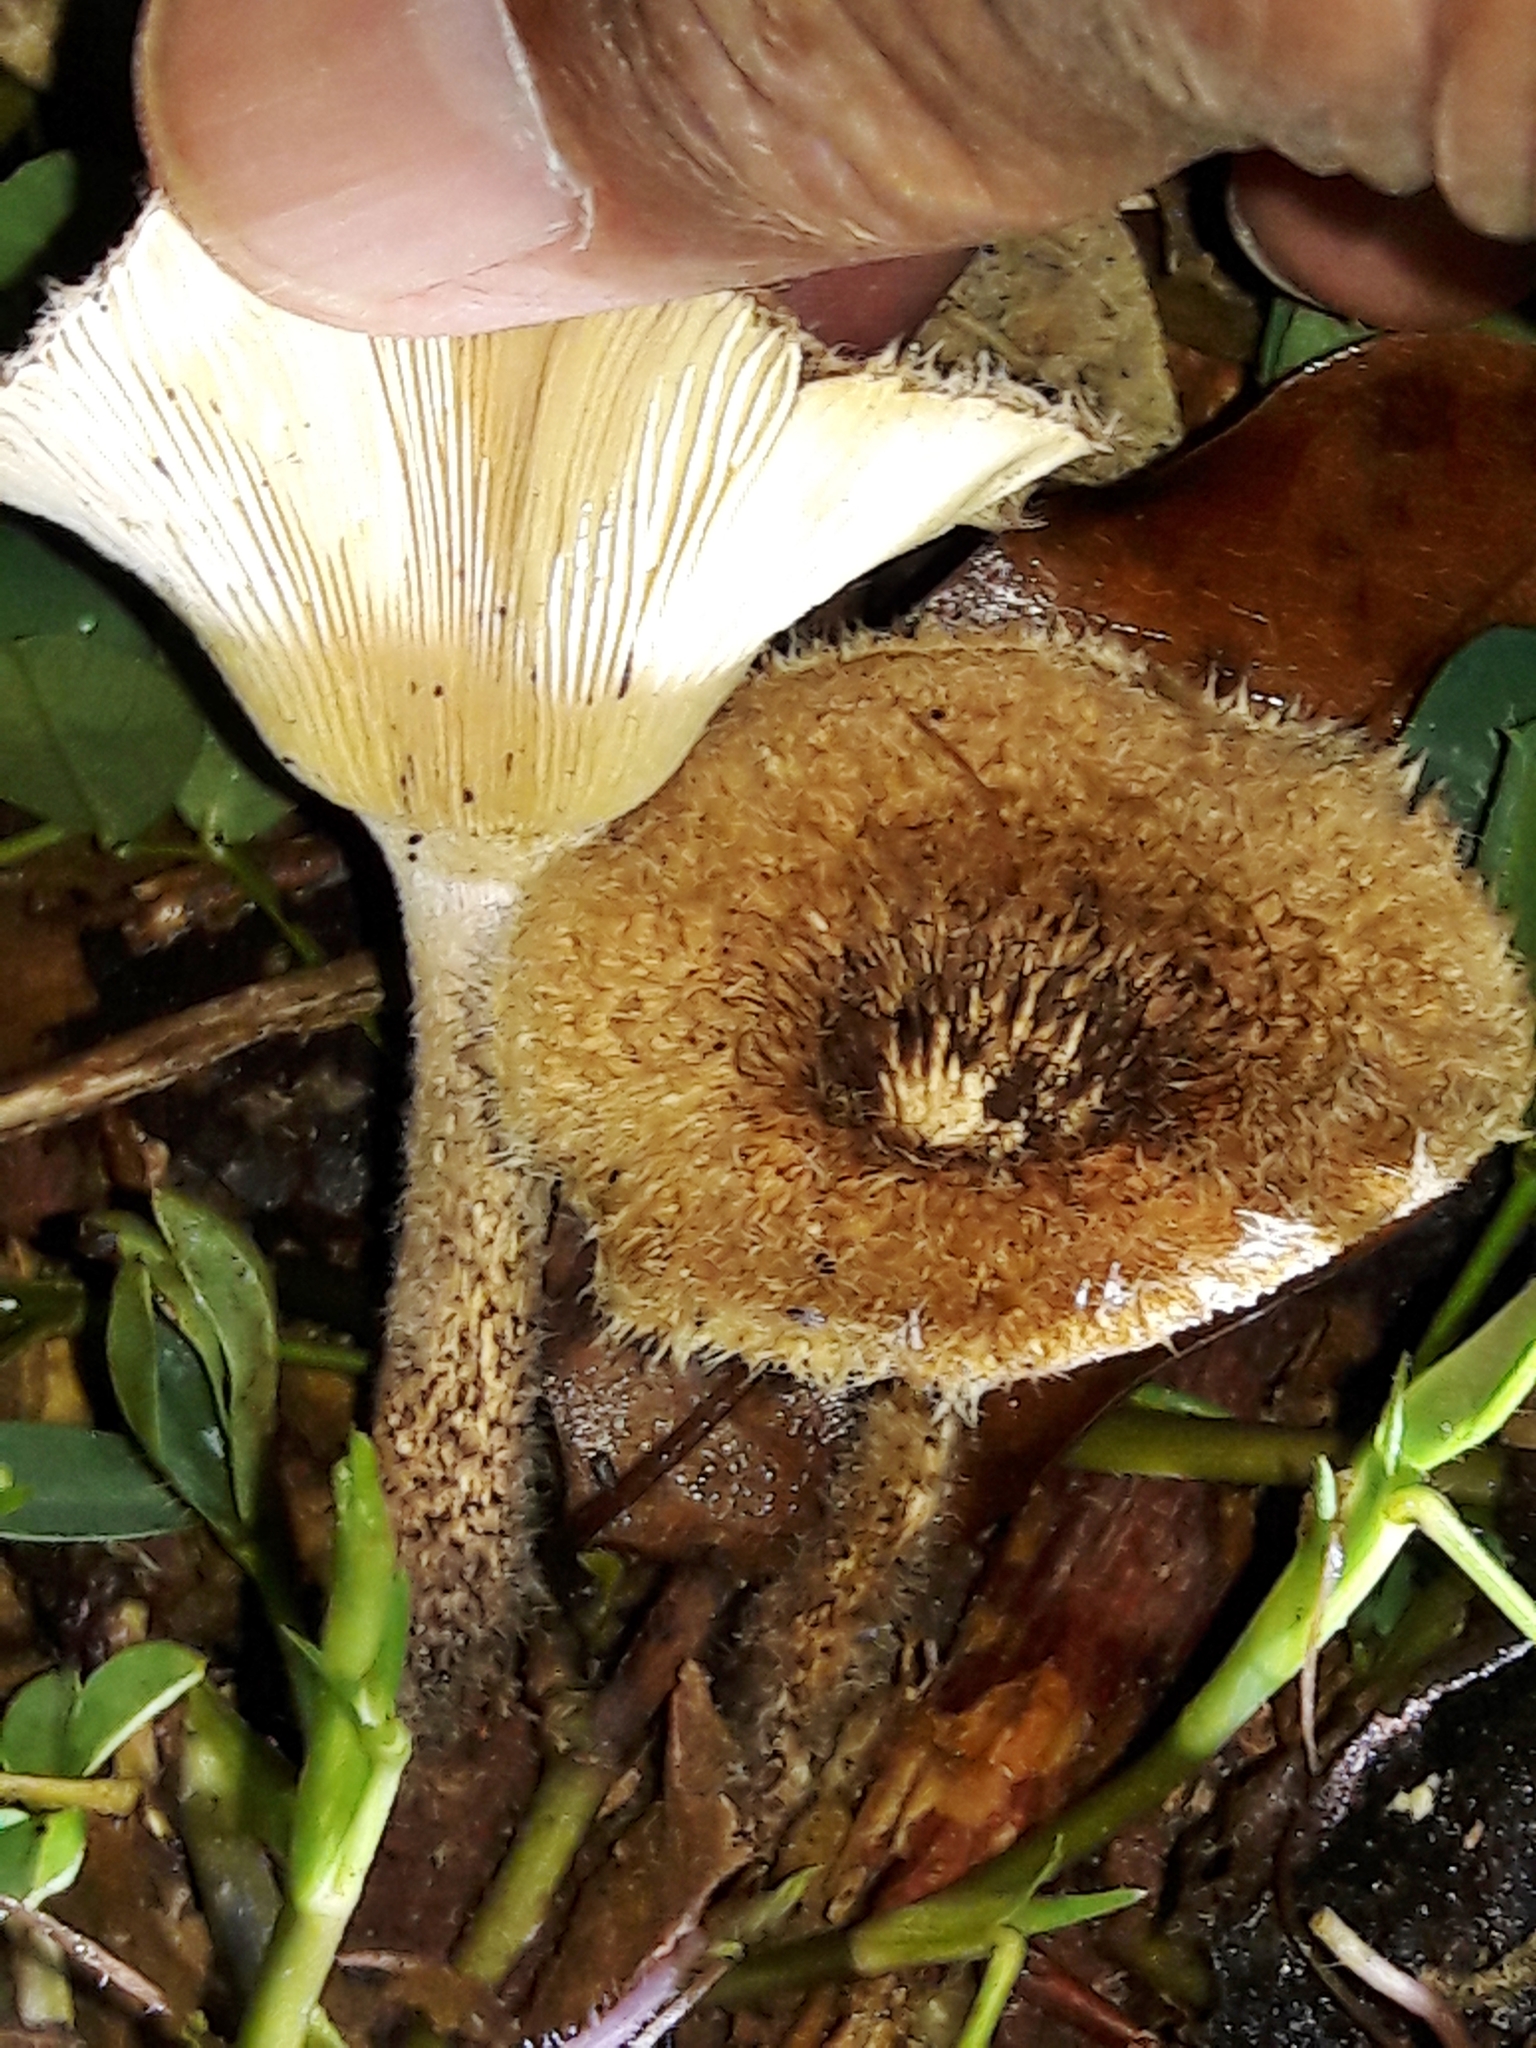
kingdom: Fungi
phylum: Basidiomycota
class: Agaricomycetes
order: Polyporales
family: Polyporaceae
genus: Lentinus
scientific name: Lentinus crinitus
